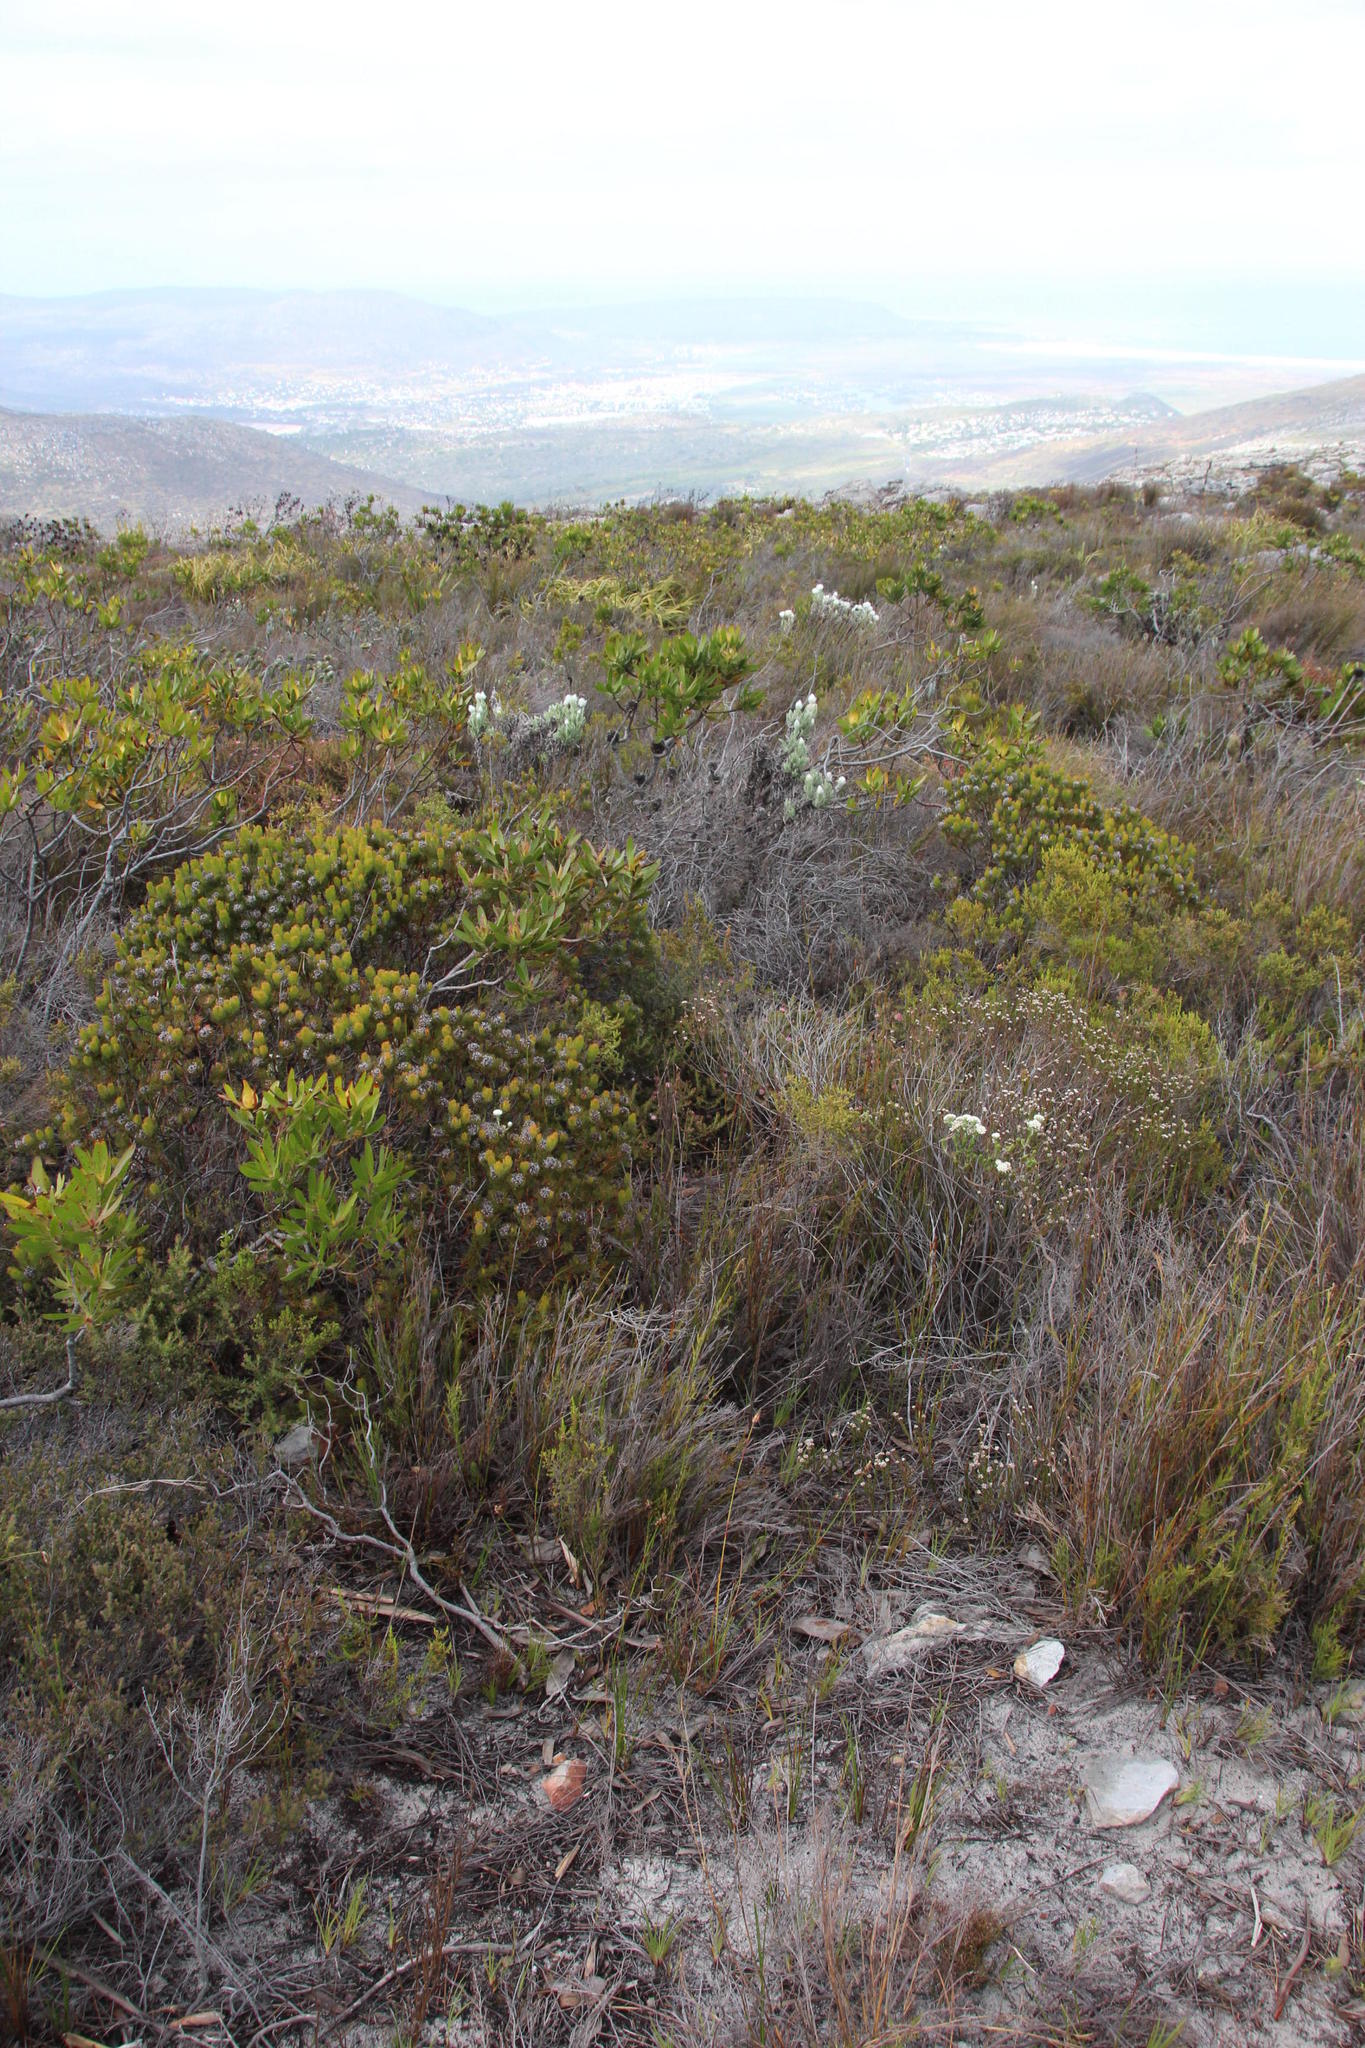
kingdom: Plantae
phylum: Tracheophyta
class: Magnoliopsida
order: Proteales
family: Proteaceae
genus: Serruria
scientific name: Serruria villosa
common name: Golden spiderhead
